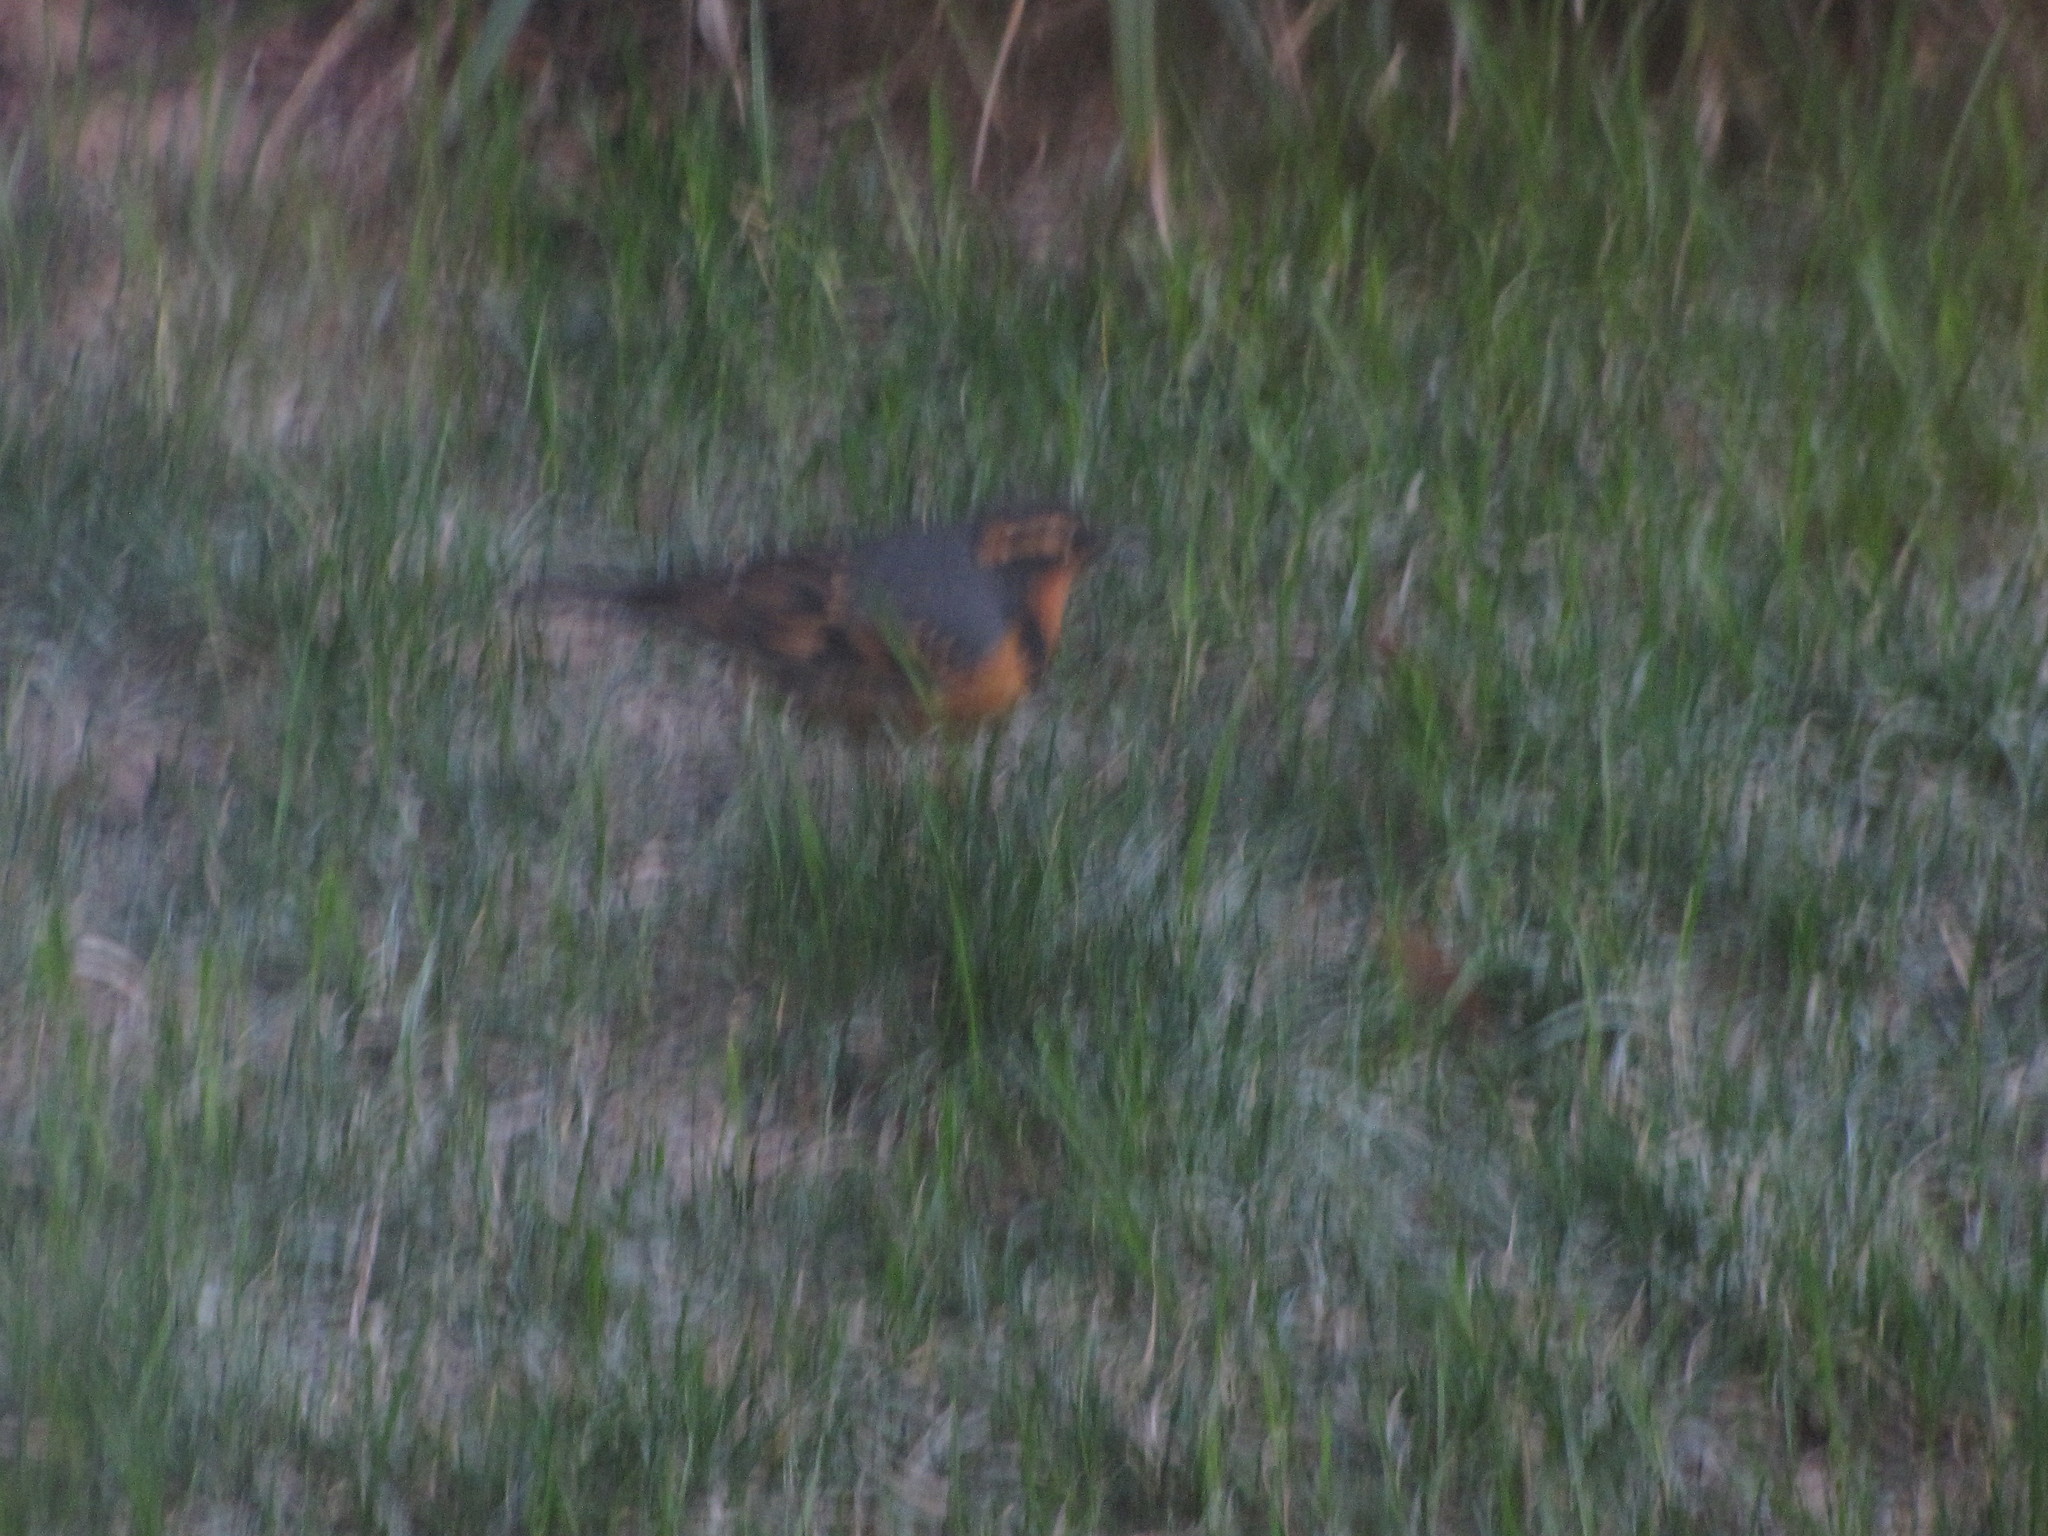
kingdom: Animalia
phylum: Chordata
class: Aves
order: Passeriformes
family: Turdidae
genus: Ixoreus
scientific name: Ixoreus naevius
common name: Varied thrush
